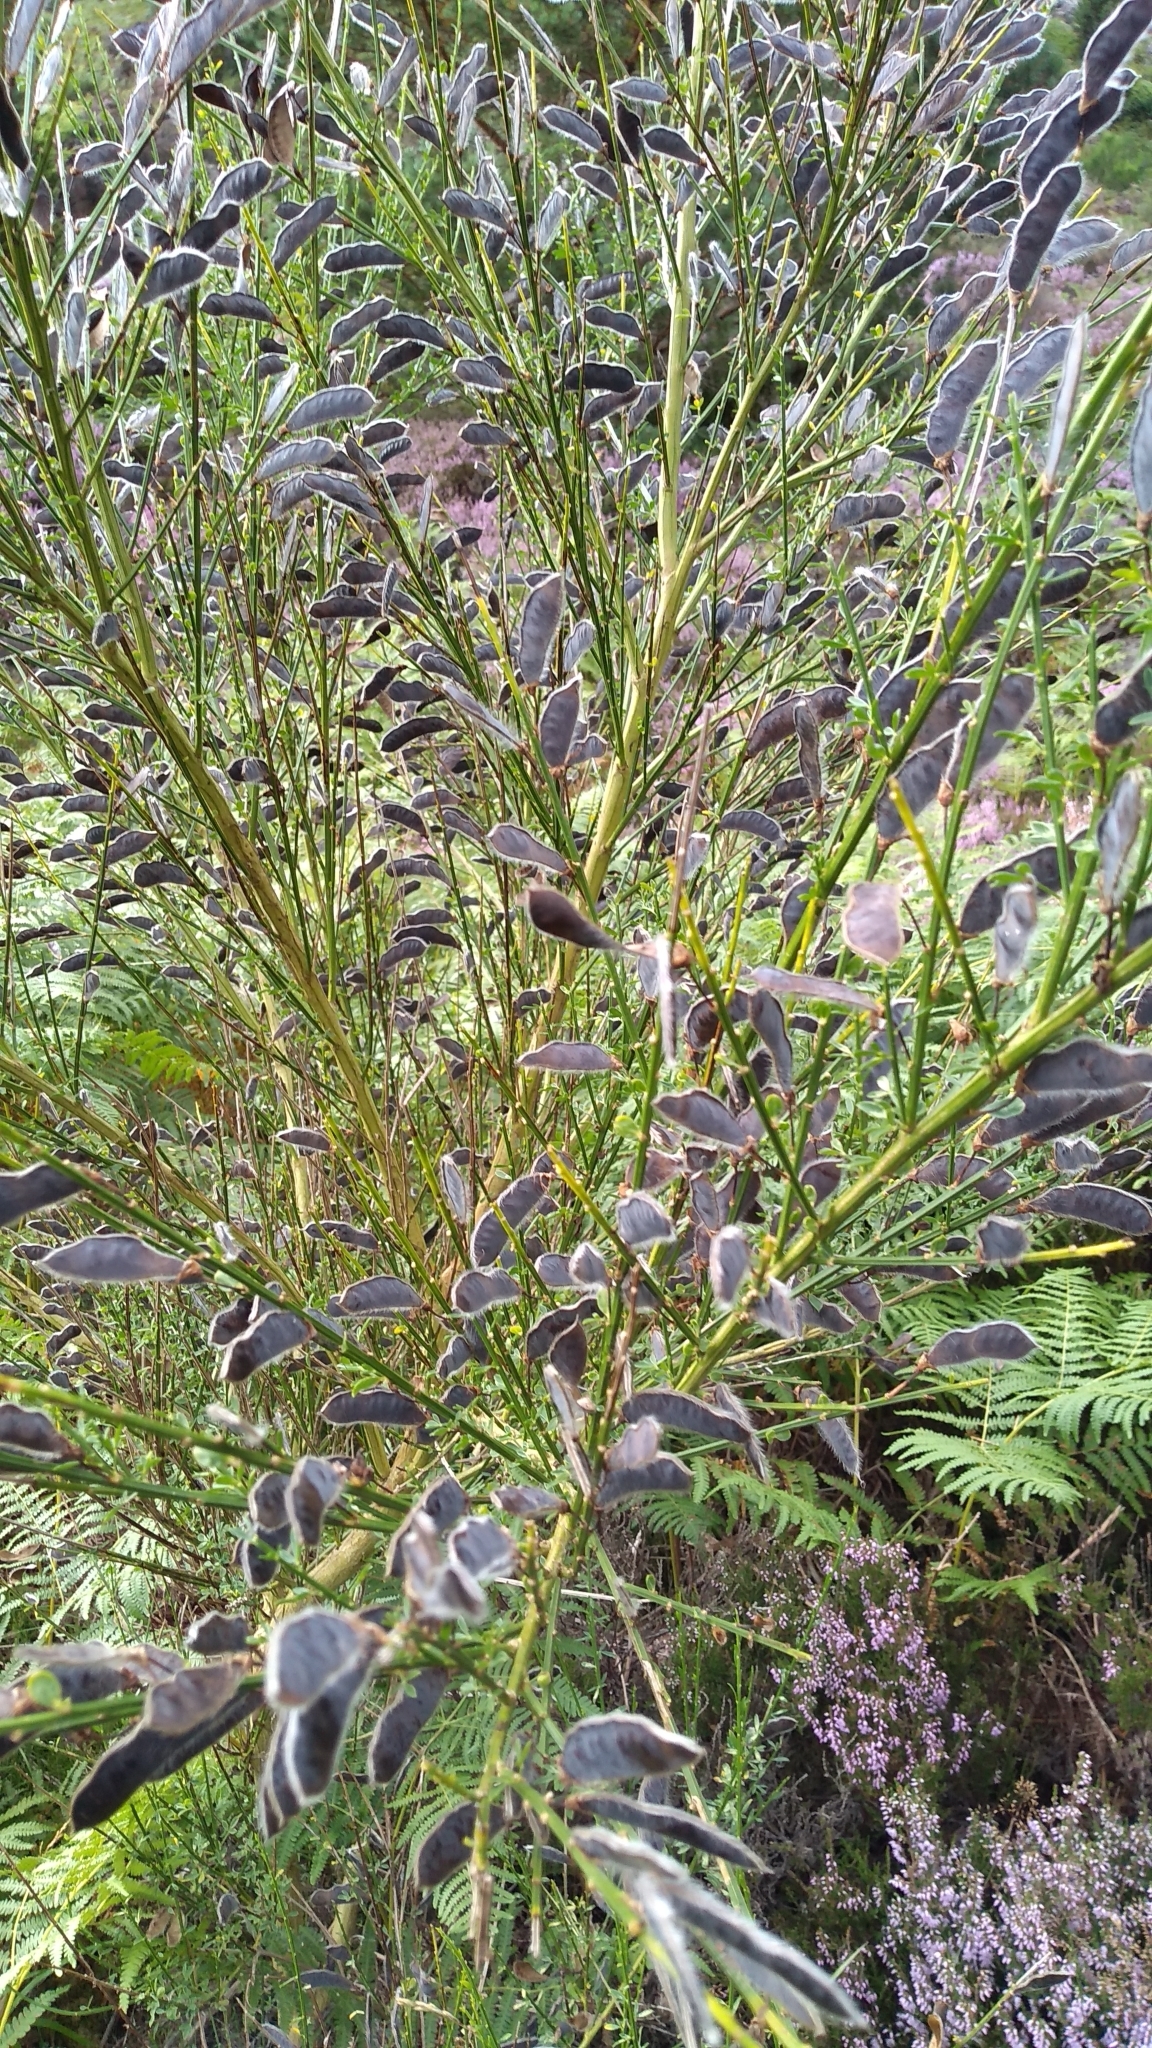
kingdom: Plantae
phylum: Tracheophyta
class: Magnoliopsida
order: Fabales
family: Fabaceae
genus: Cytisus
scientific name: Cytisus scoparius
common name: Scotch broom
